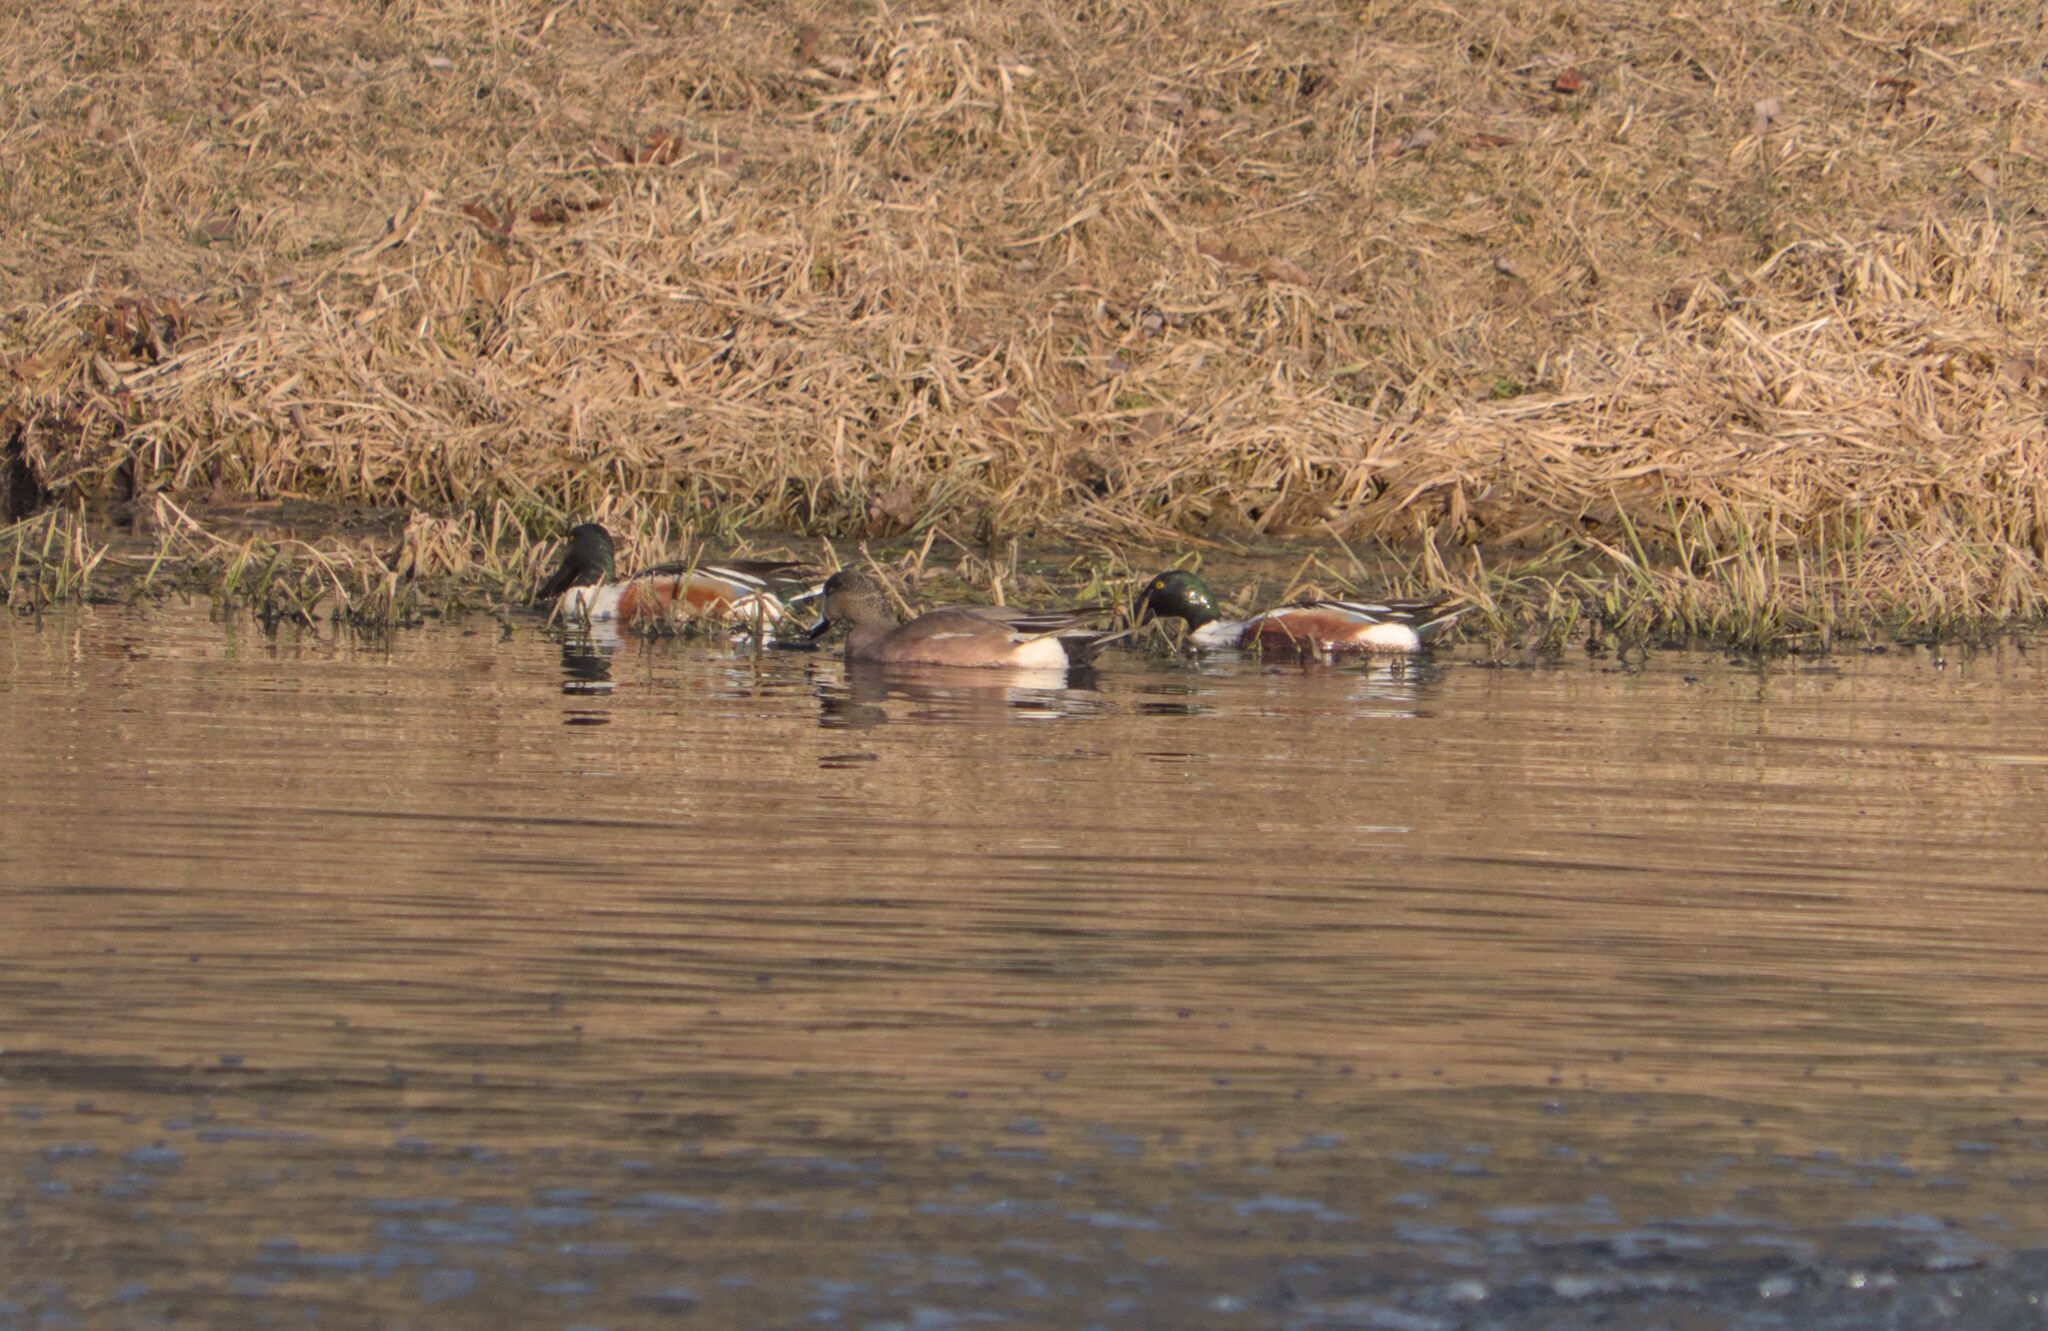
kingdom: Animalia
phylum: Chordata
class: Aves
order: Anseriformes
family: Anatidae
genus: Spatula
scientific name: Spatula clypeata
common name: Northern shoveler
